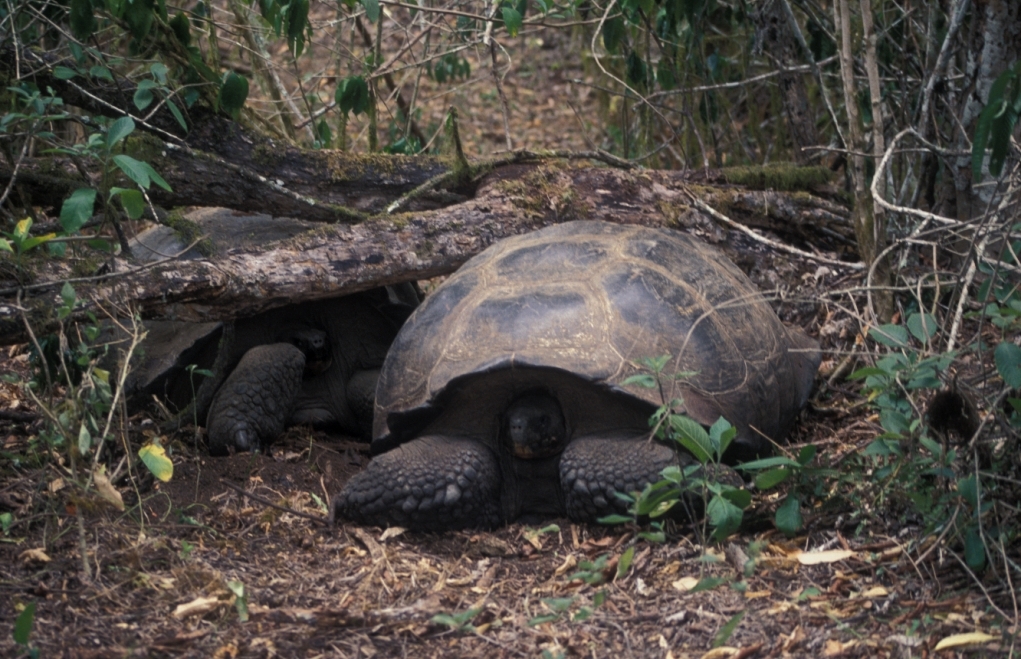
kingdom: Animalia
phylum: Chordata
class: Testudines
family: Testudinidae
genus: Chelonoidis
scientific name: Chelonoidis porteri
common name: Indefatigable island giant tortoise
